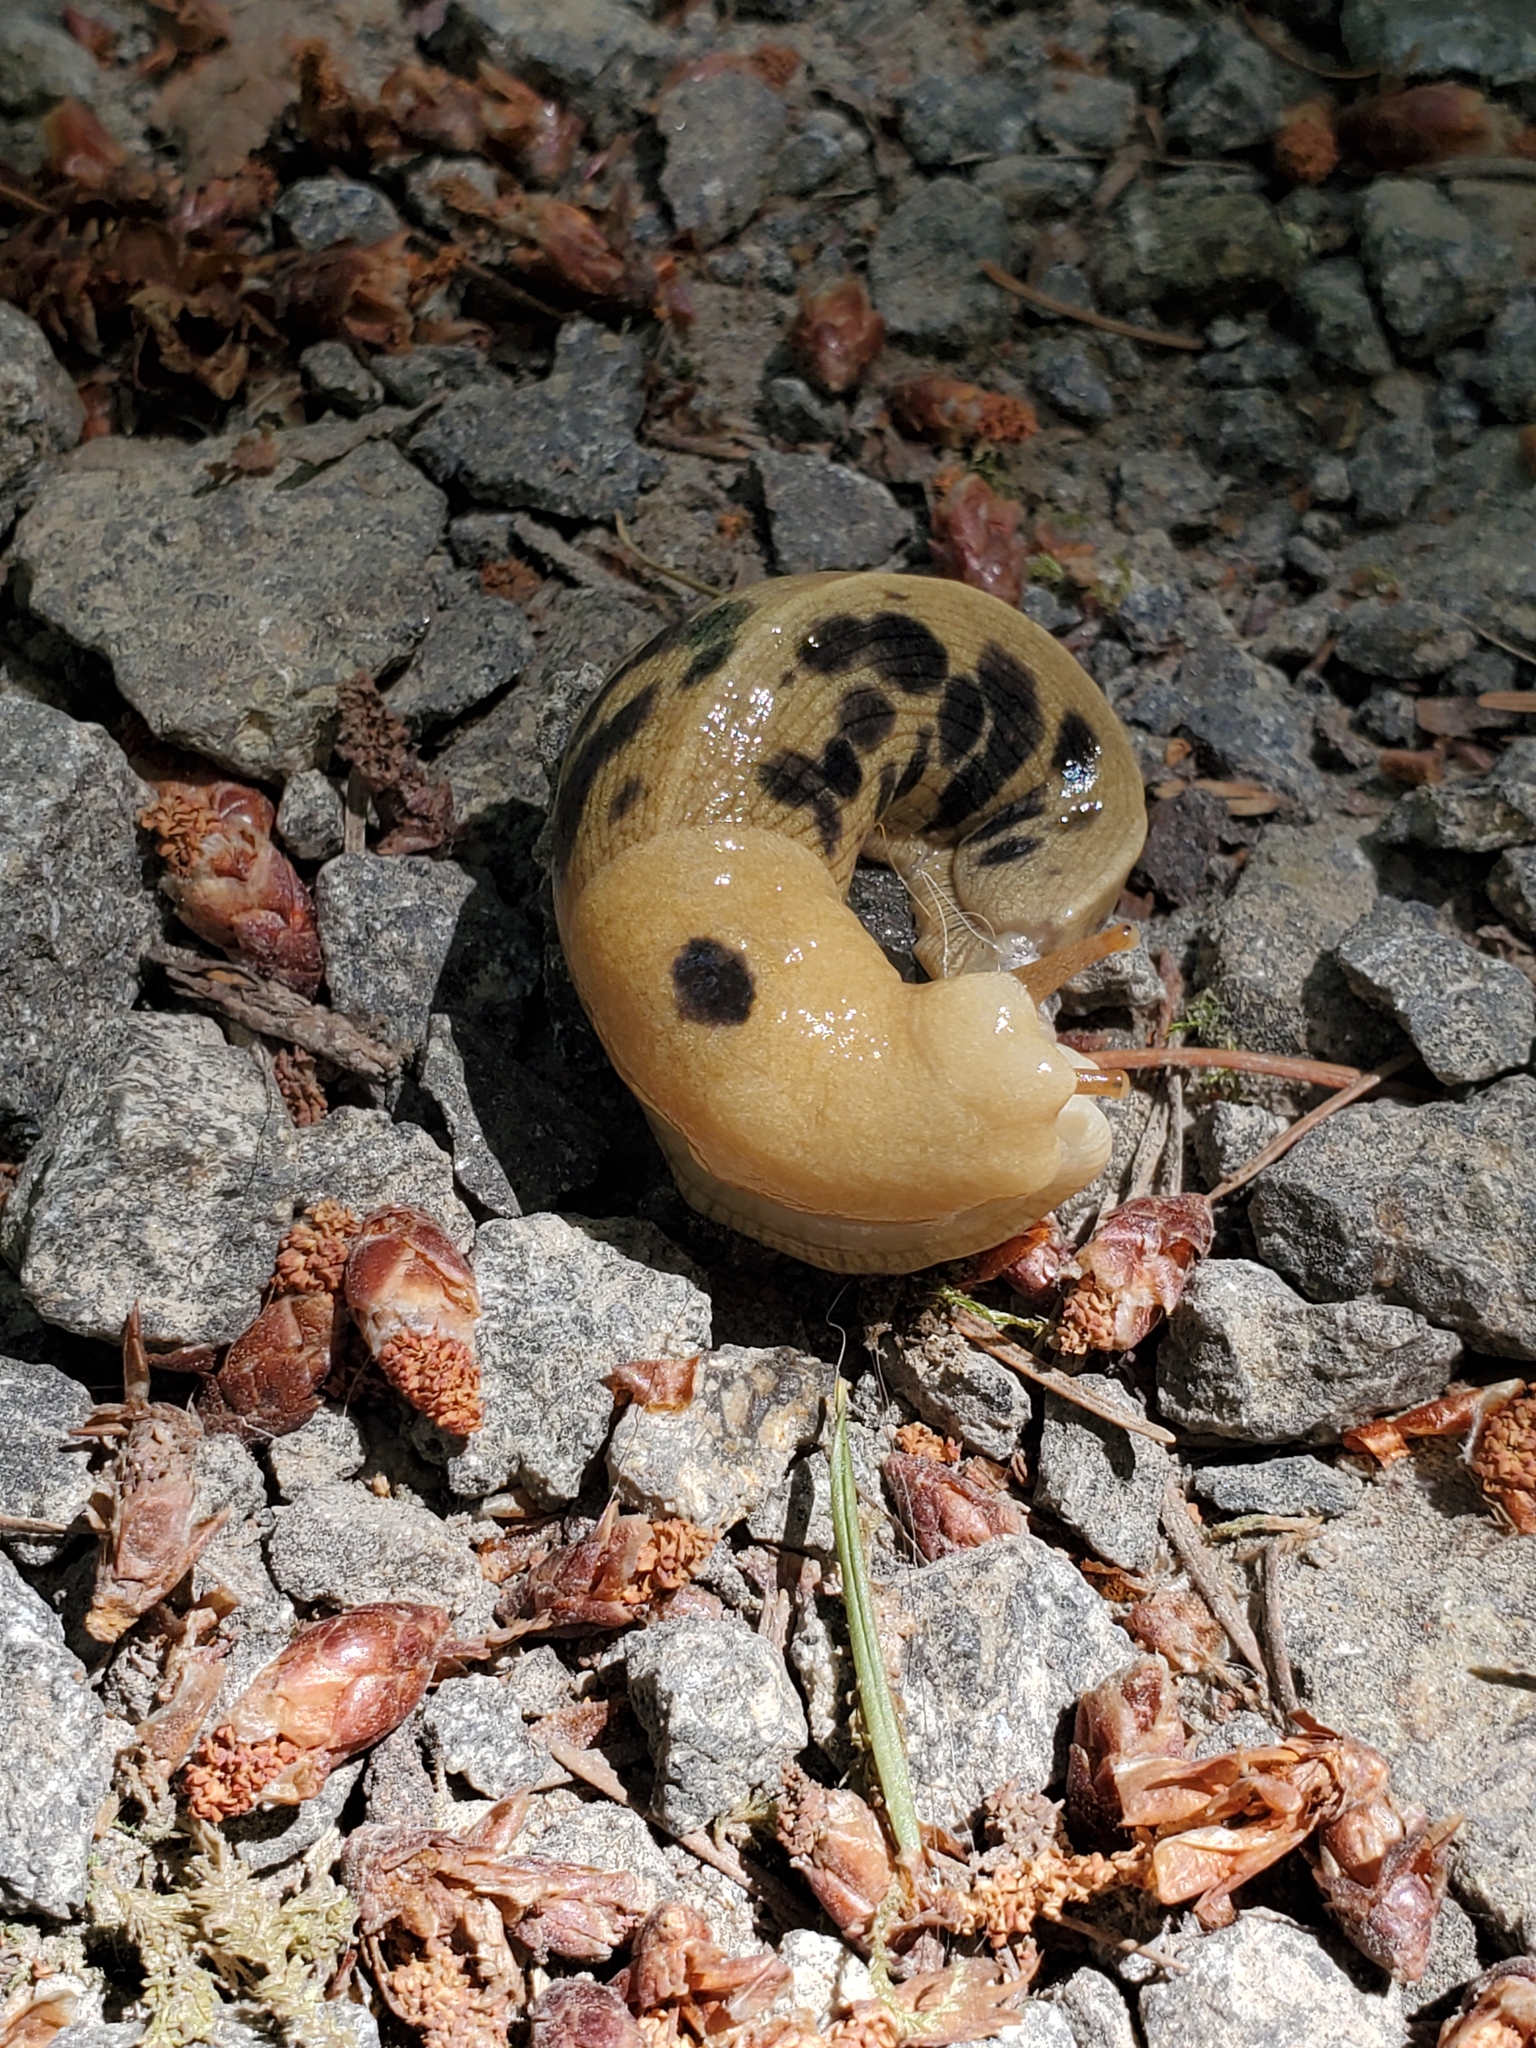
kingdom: Animalia
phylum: Mollusca
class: Gastropoda
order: Stylommatophora
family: Ariolimacidae
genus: Ariolimax
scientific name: Ariolimax columbianus
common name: Pacific banana slug
